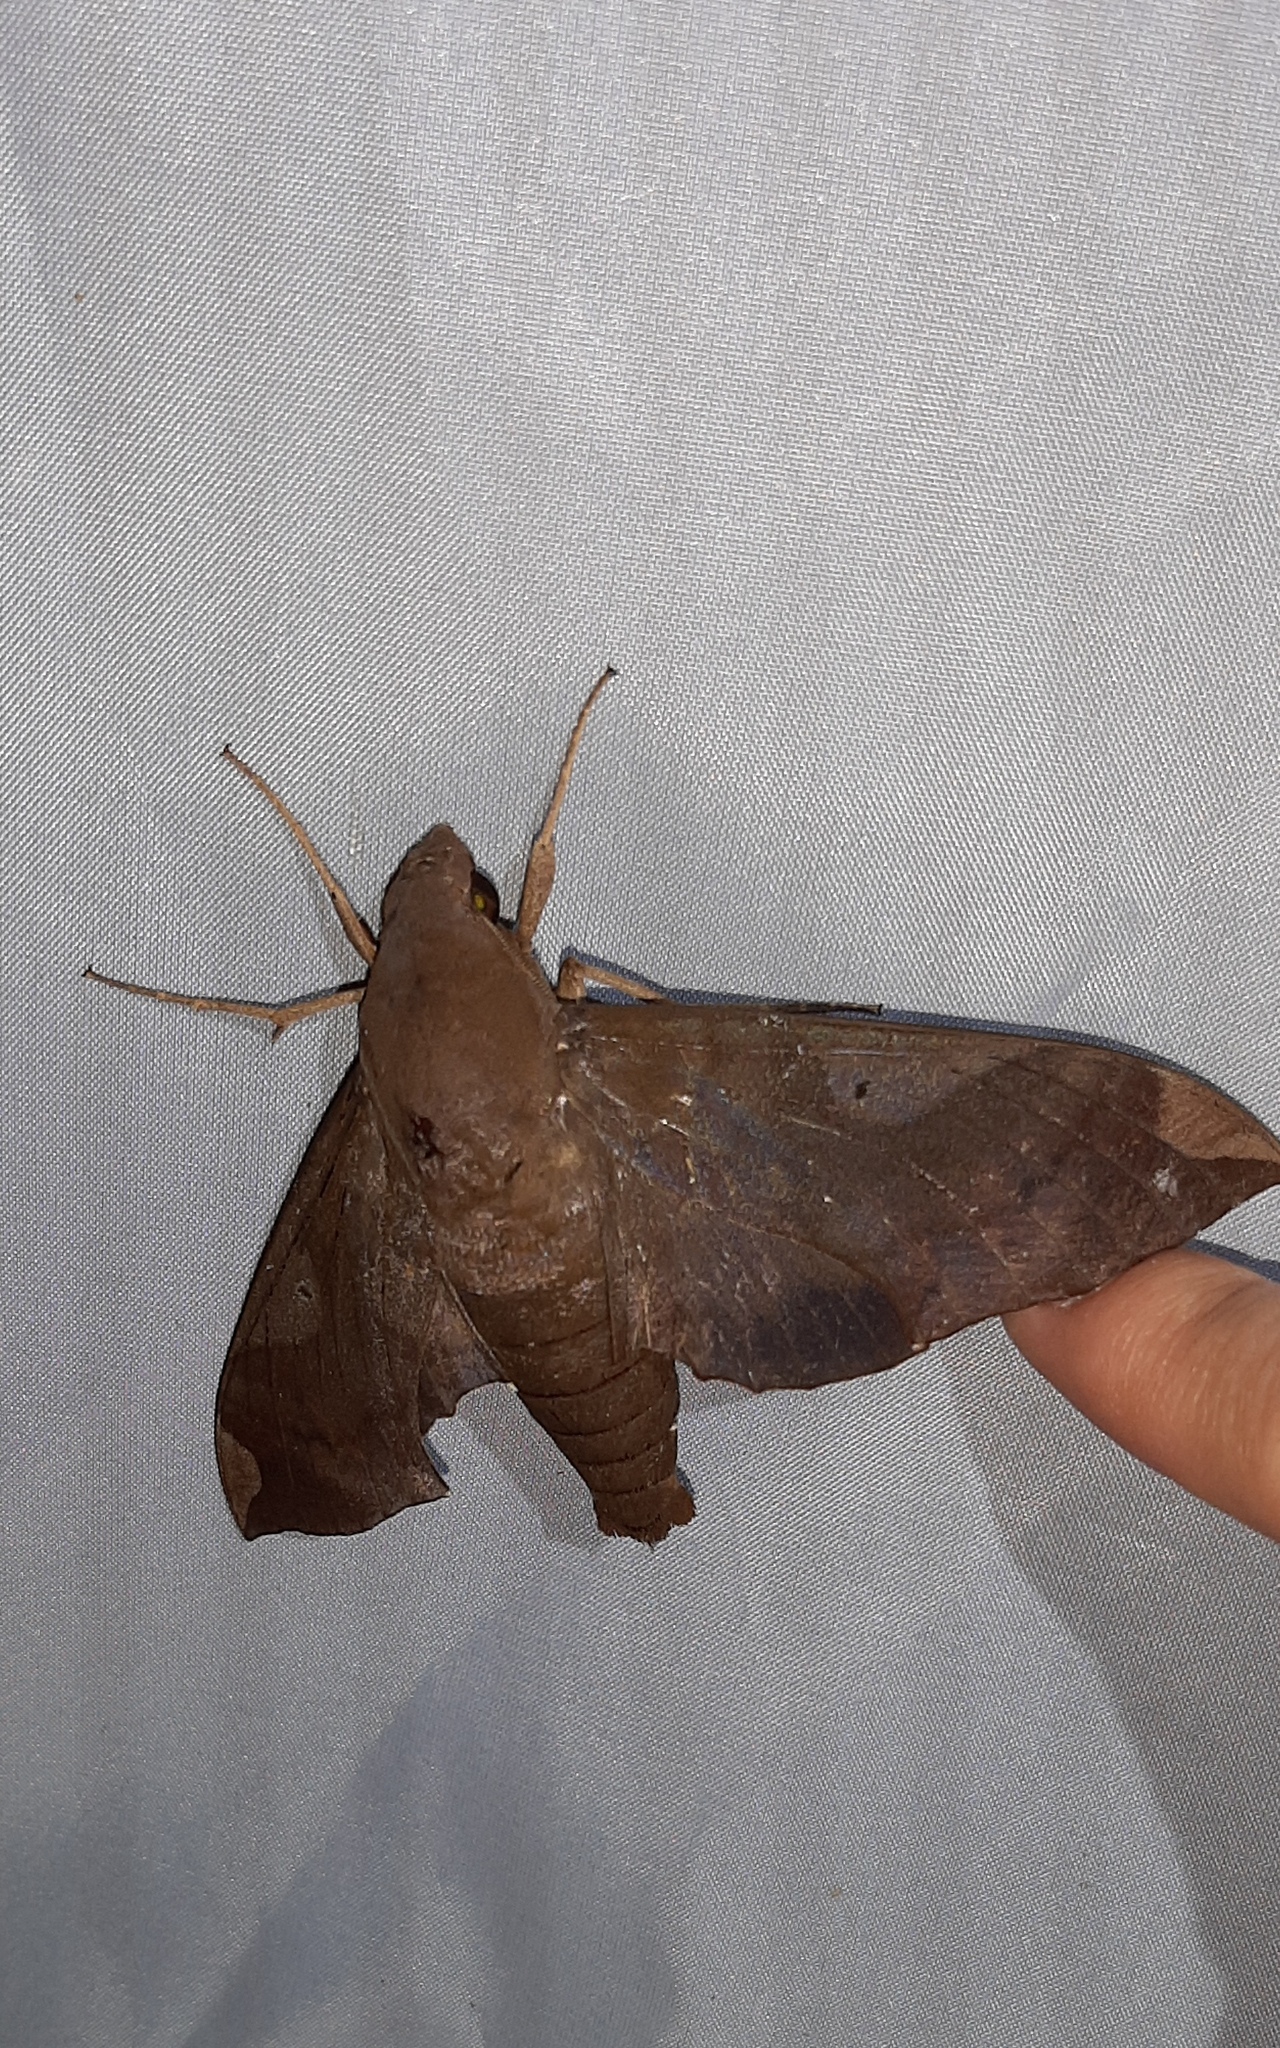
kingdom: Animalia
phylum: Arthropoda
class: Insecta
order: Lepidoptera
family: Sphingidae
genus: Pachylia
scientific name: Pachylia syces
